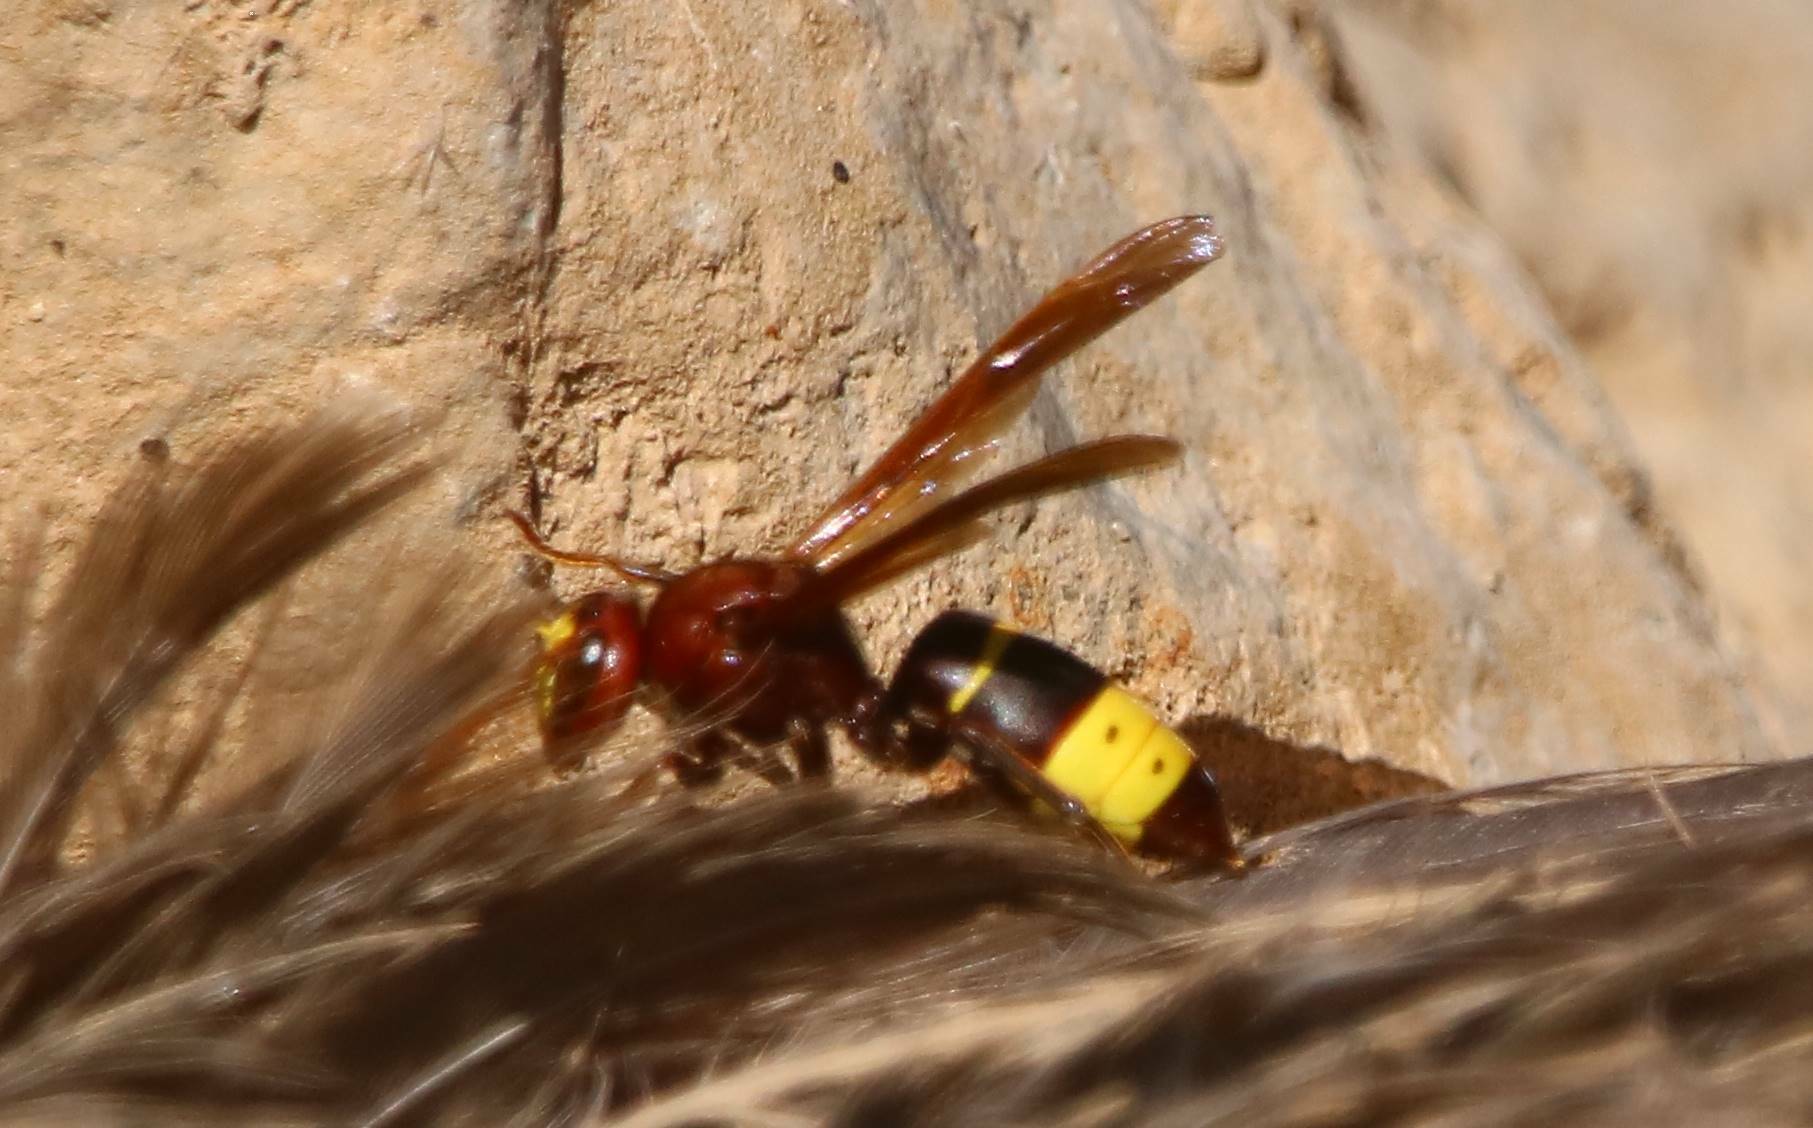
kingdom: Animalia
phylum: Arthropoda
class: Insecta
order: Hymenoptera
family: Vespidae
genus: Vespa
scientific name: Vespa orientalis
